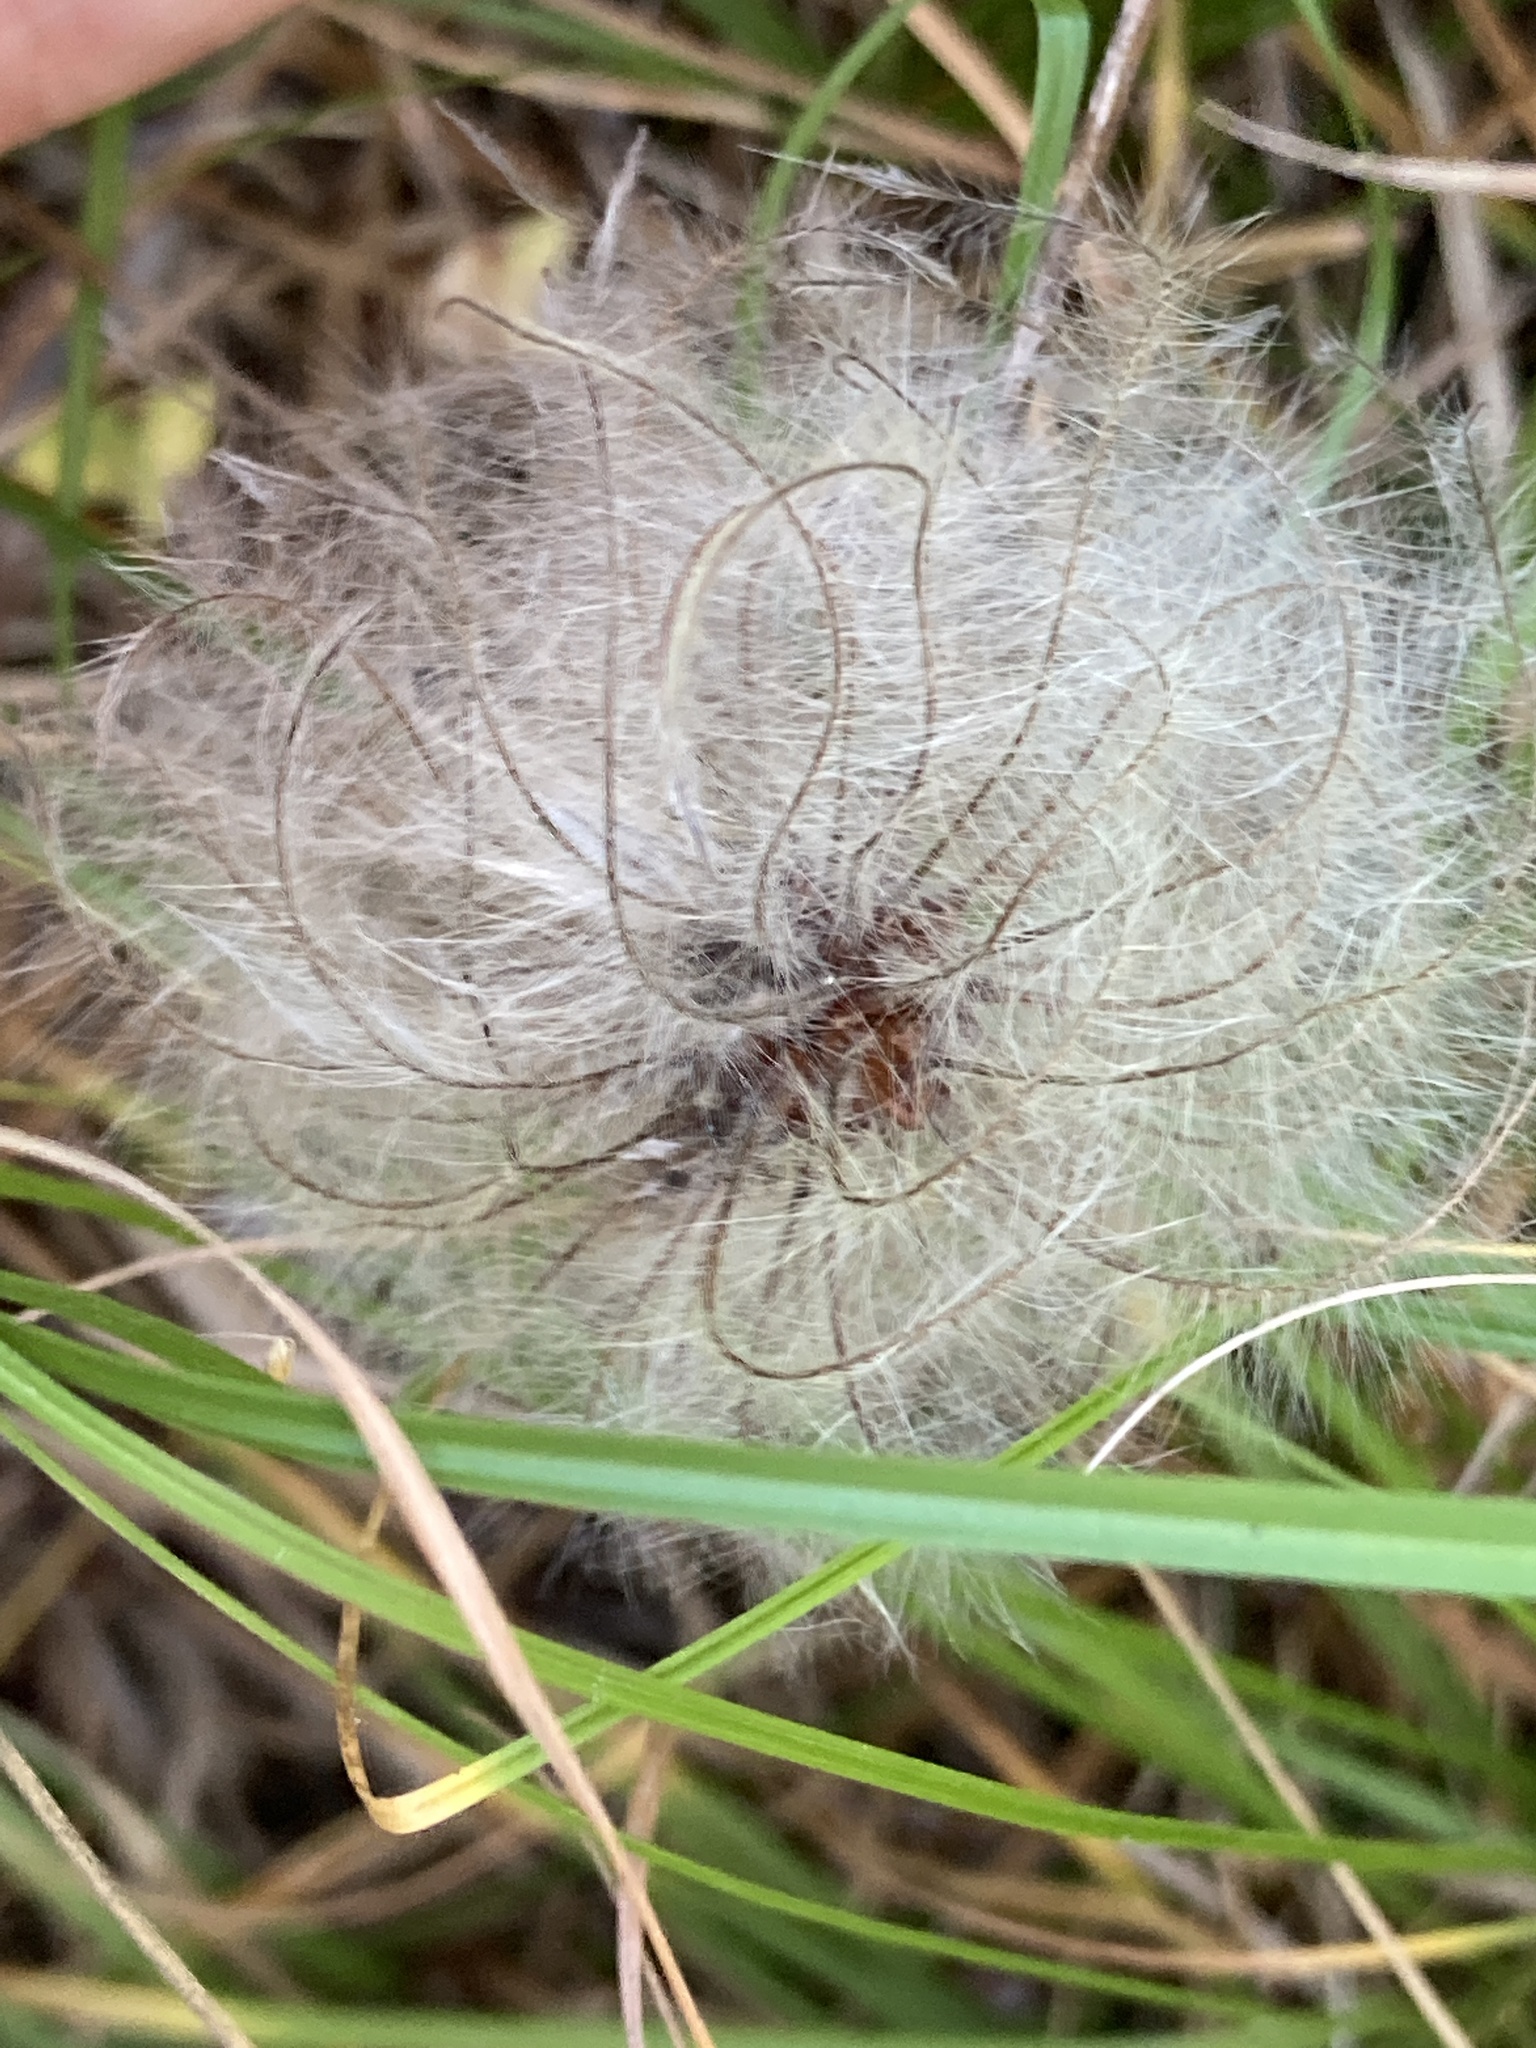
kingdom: Plantae
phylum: Tracheophyta
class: Magnoliopsida
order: Ranunculales
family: Ranunculaceae
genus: Clematis
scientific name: Clematis sibirica
